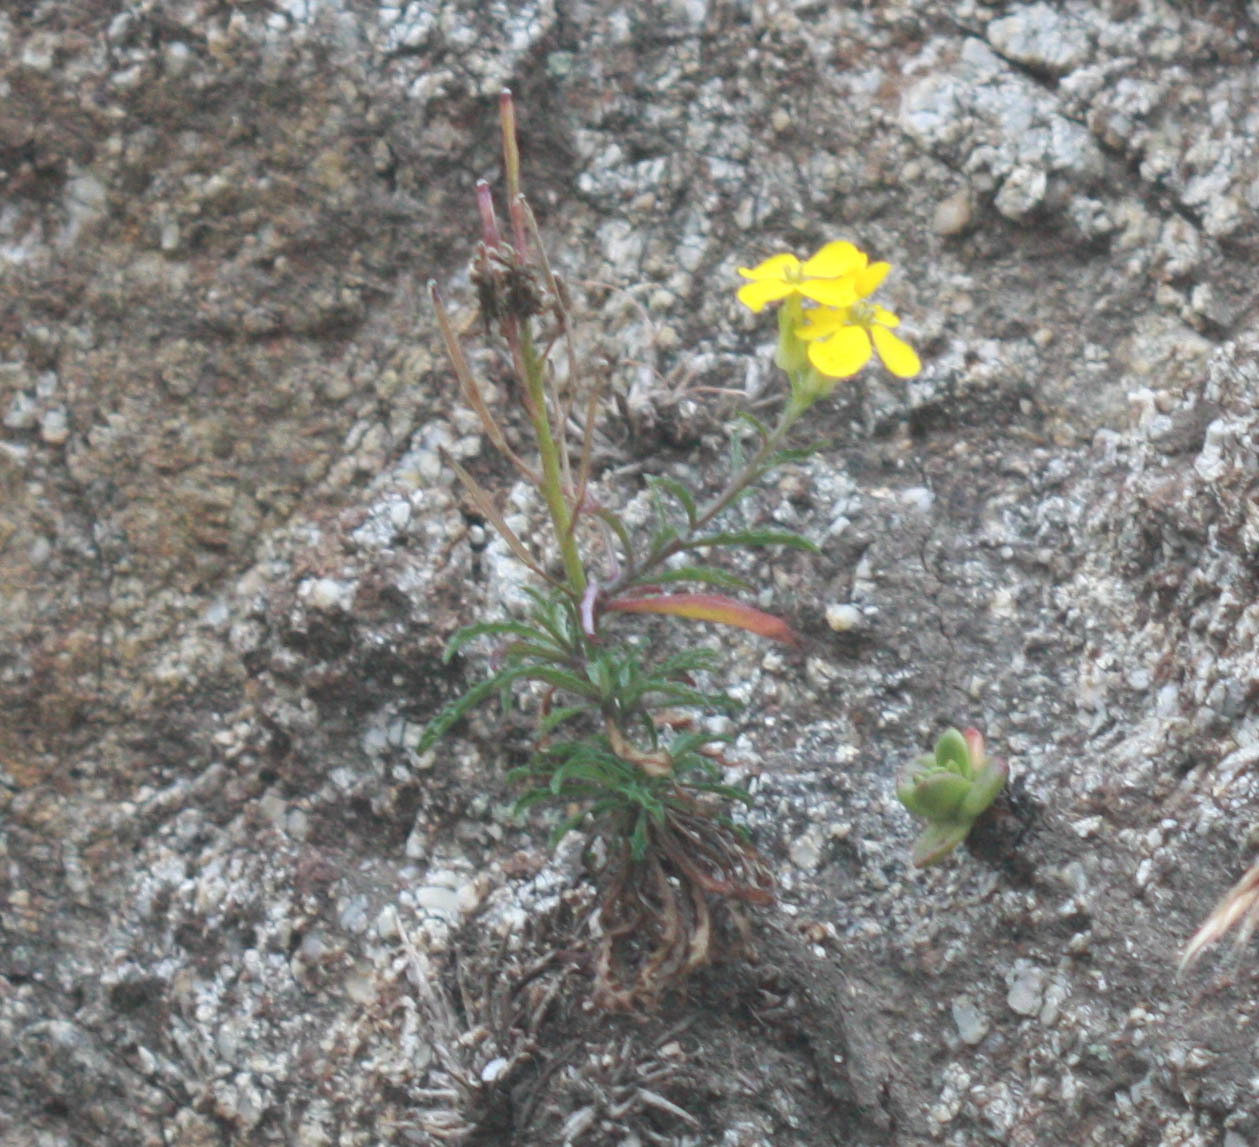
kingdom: Plantae
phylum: Tracheophyta
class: Magnoliopsida
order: Brassicales
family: Brassicaceae
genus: Erysimum
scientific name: Erysimum franciscanum
